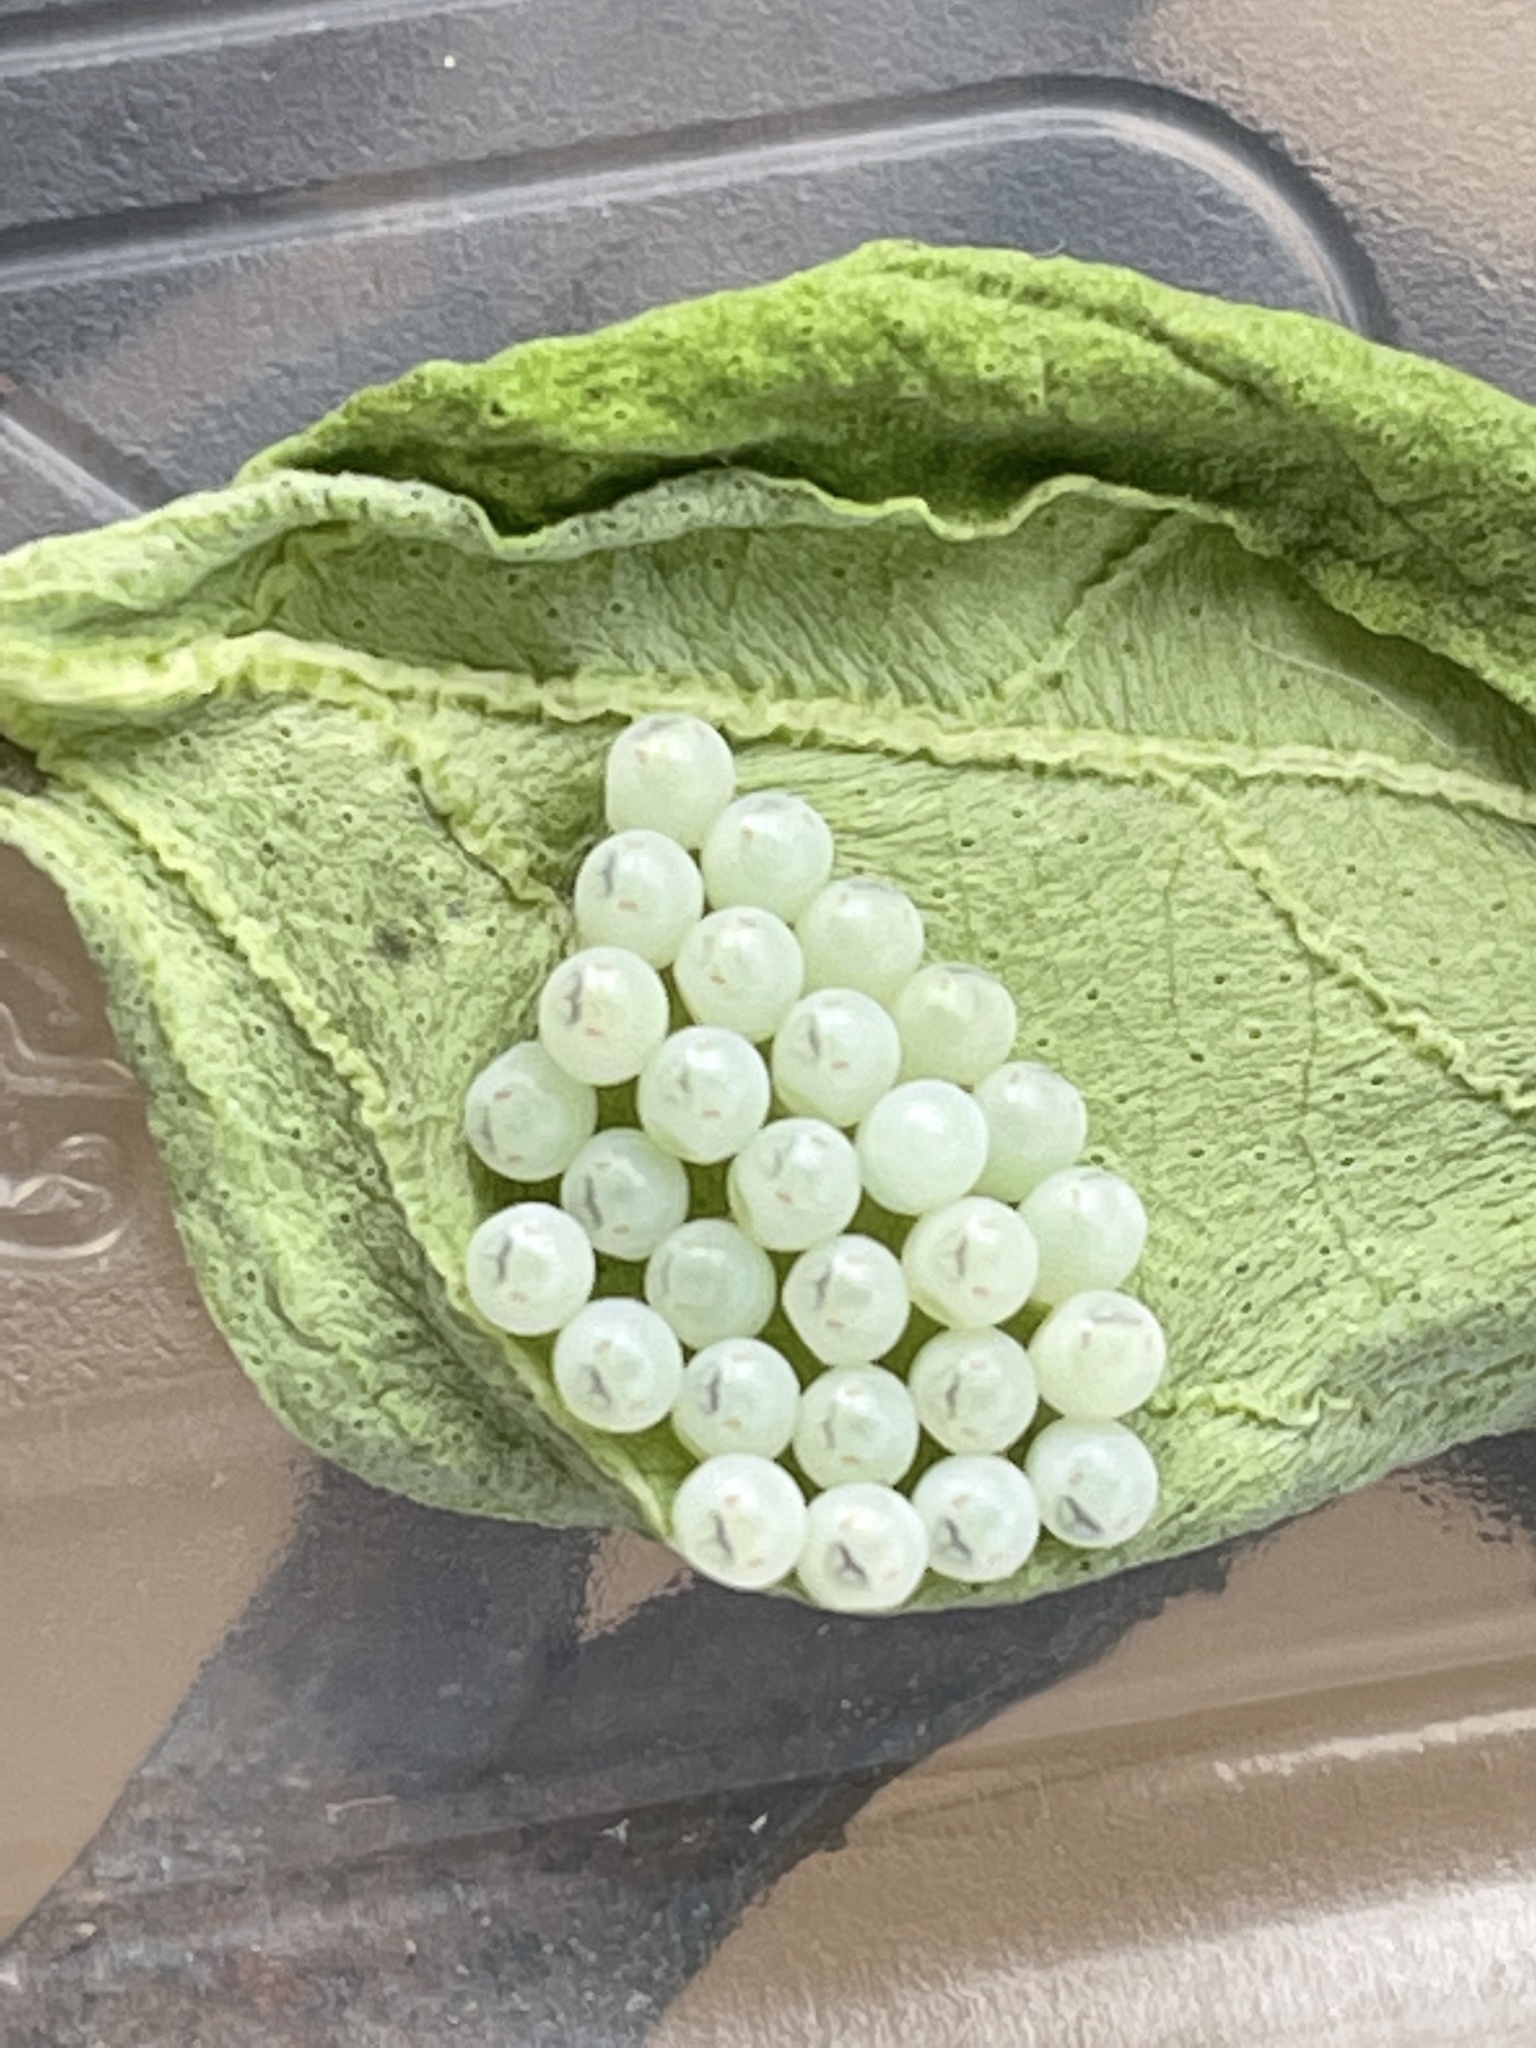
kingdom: Animalia
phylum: Arthropoda
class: Insecta
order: Hemiptera
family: Pentatomidae
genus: Halyomorpha
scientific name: Halyomorpha halys
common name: Brown marmorated stink bug
